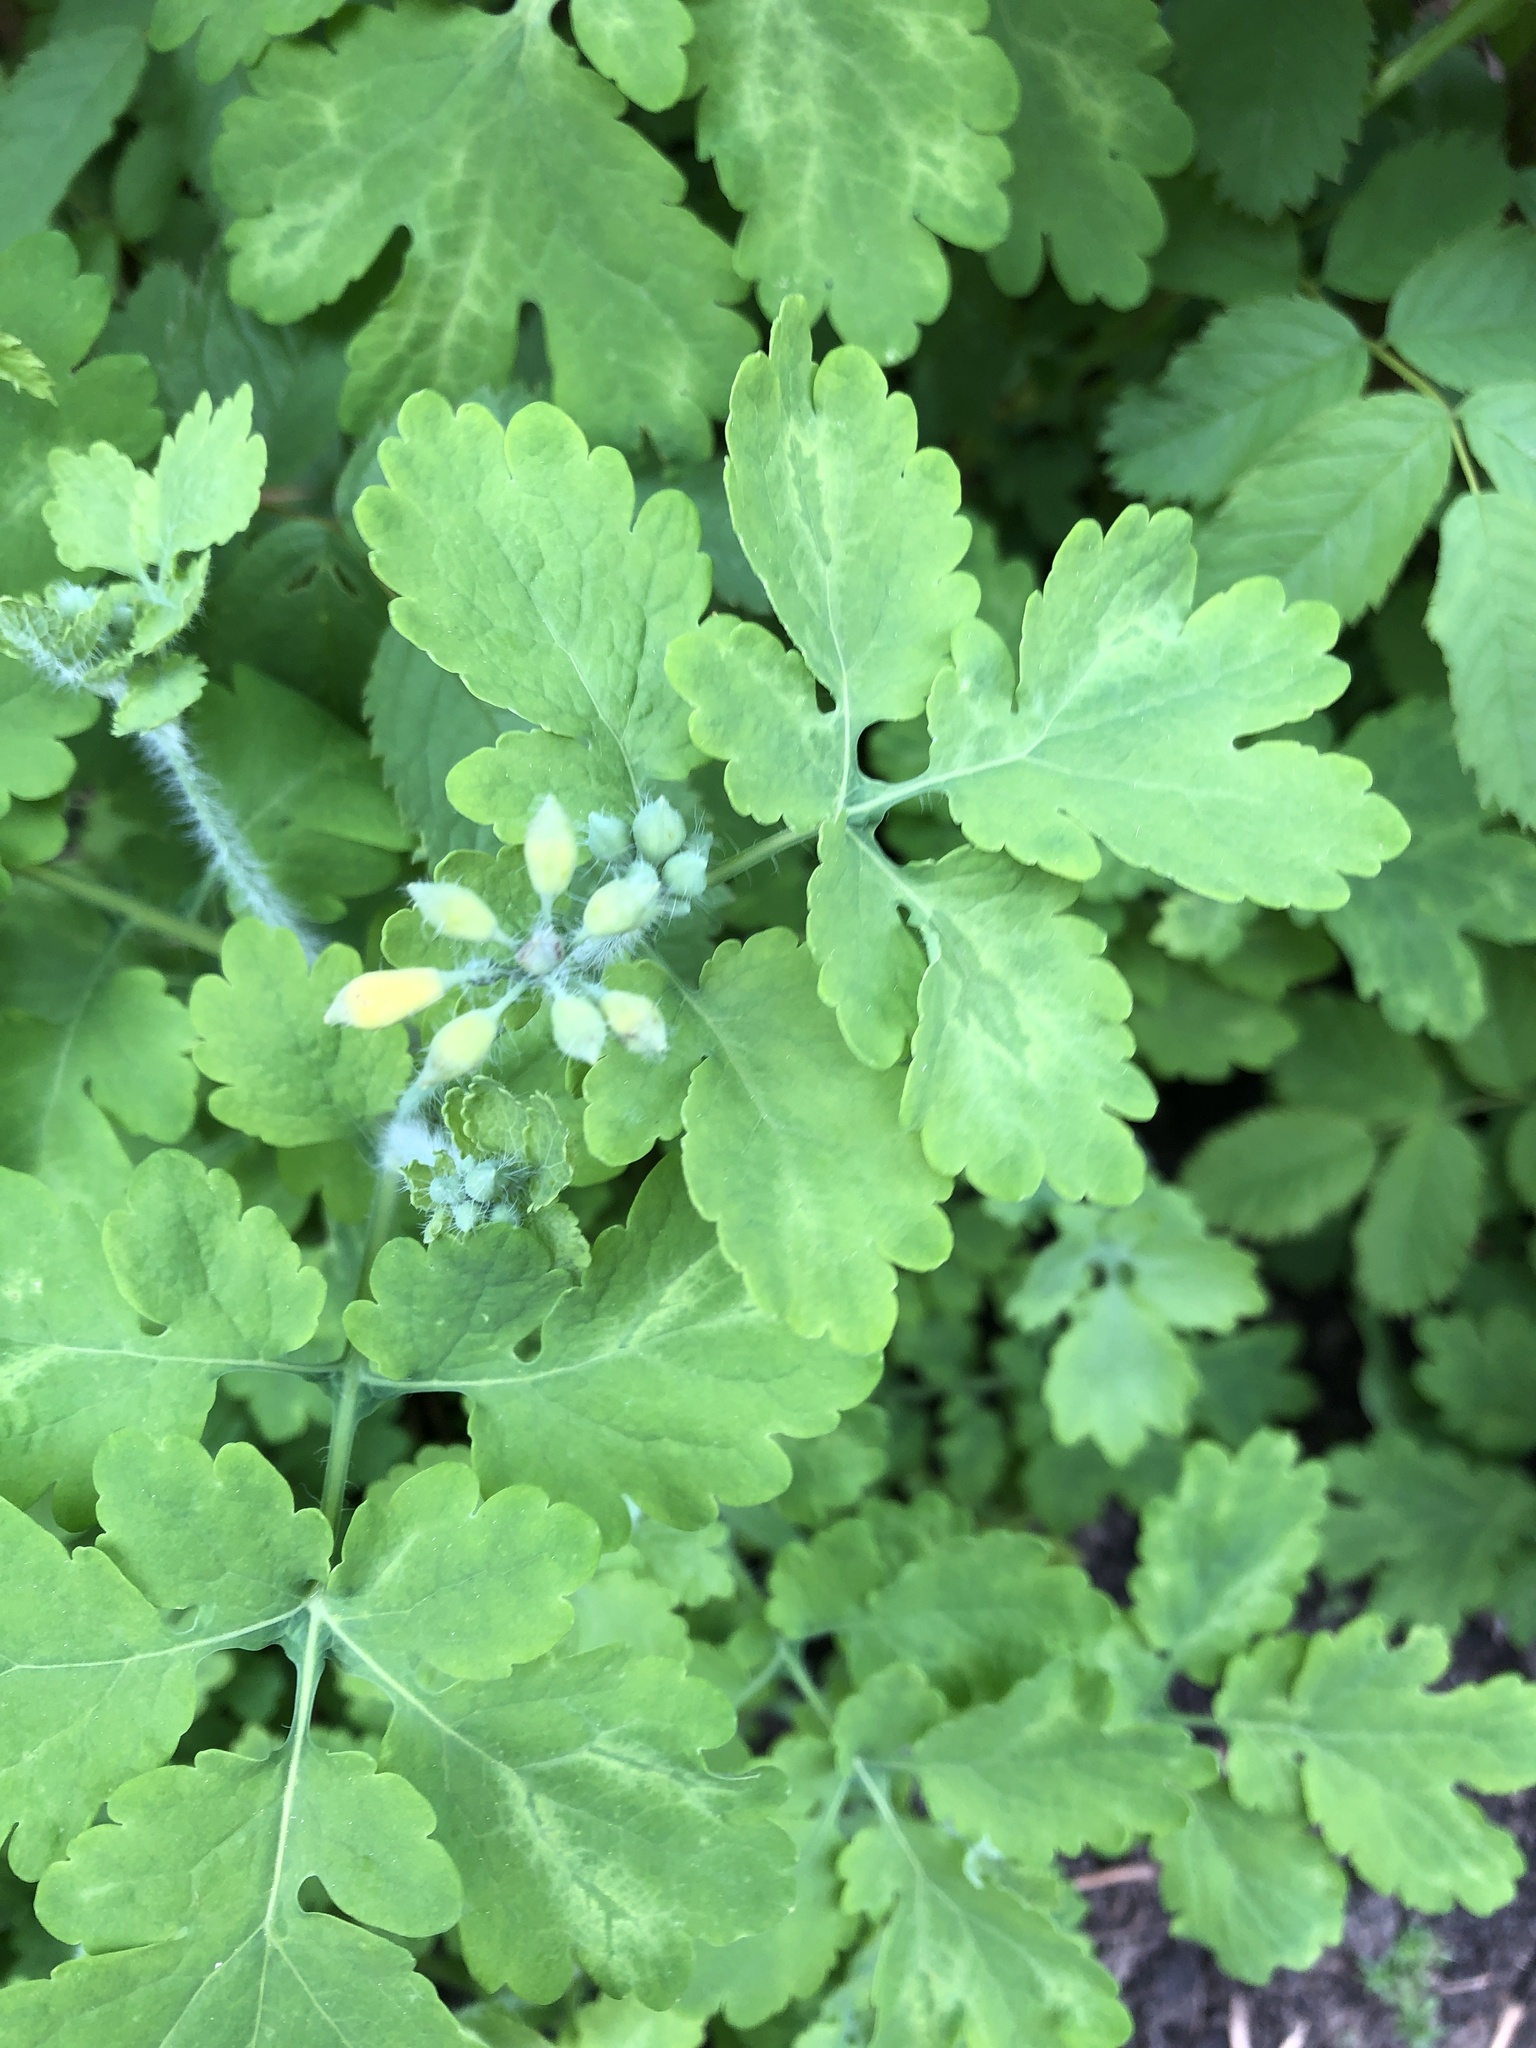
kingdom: Plantae
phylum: Tracheophyta
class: Magnoliopsida
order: Ranunculales
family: Papaveraceae
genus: Chelidonium
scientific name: Chelidonium majus
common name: Greater celandine
